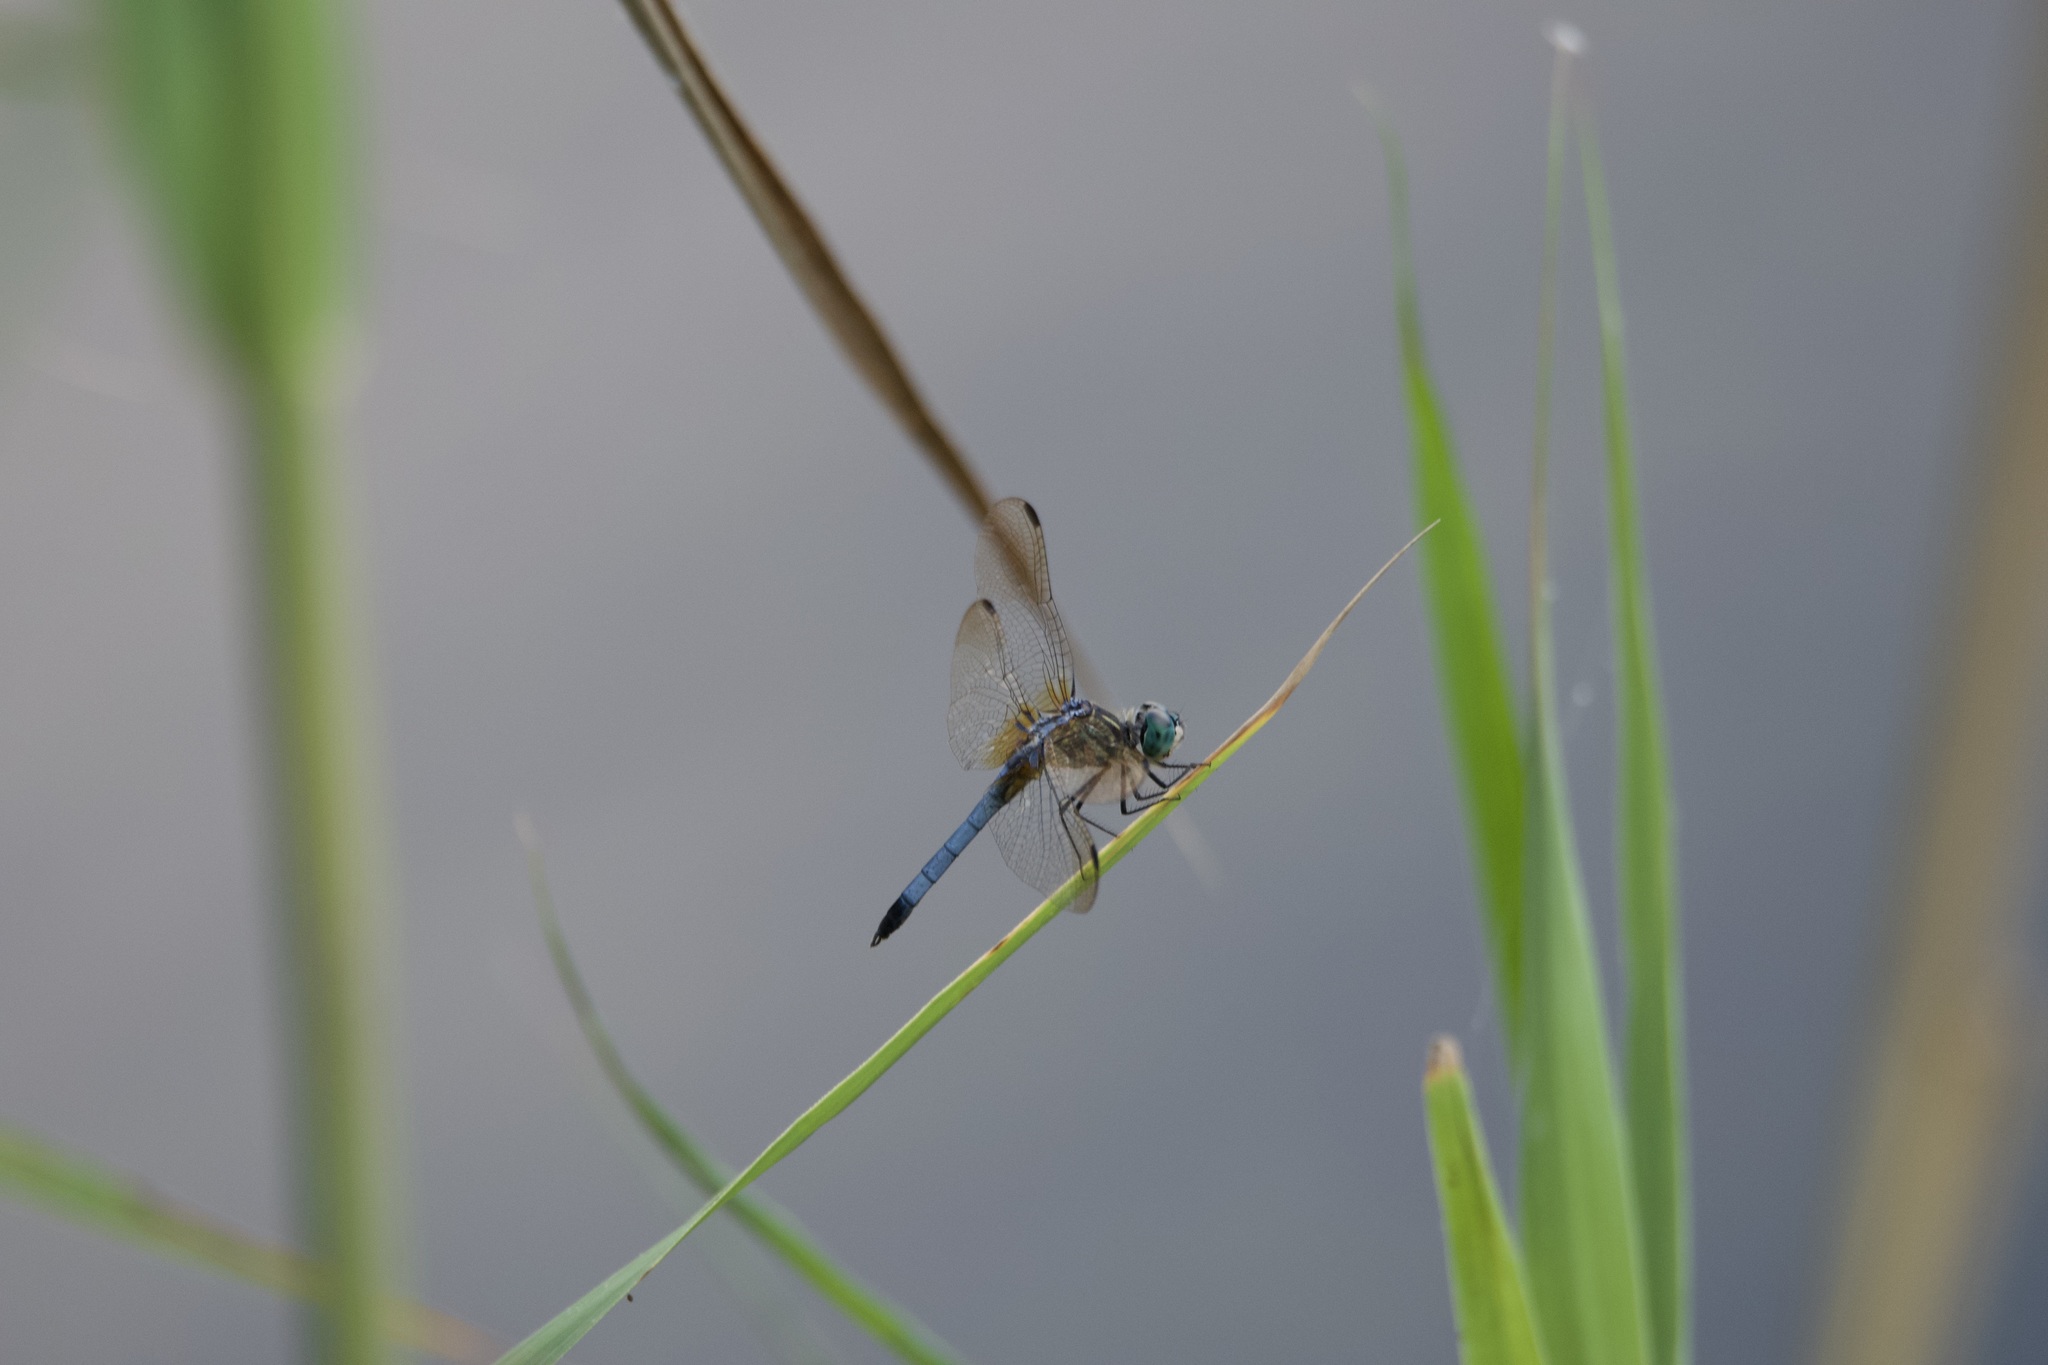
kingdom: Animalia
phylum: Arthropoda
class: Insecta
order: Odonata
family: Libellulidae
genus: Pachydiplax
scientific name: Pachydiplax longipennis
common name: Blue dasher
